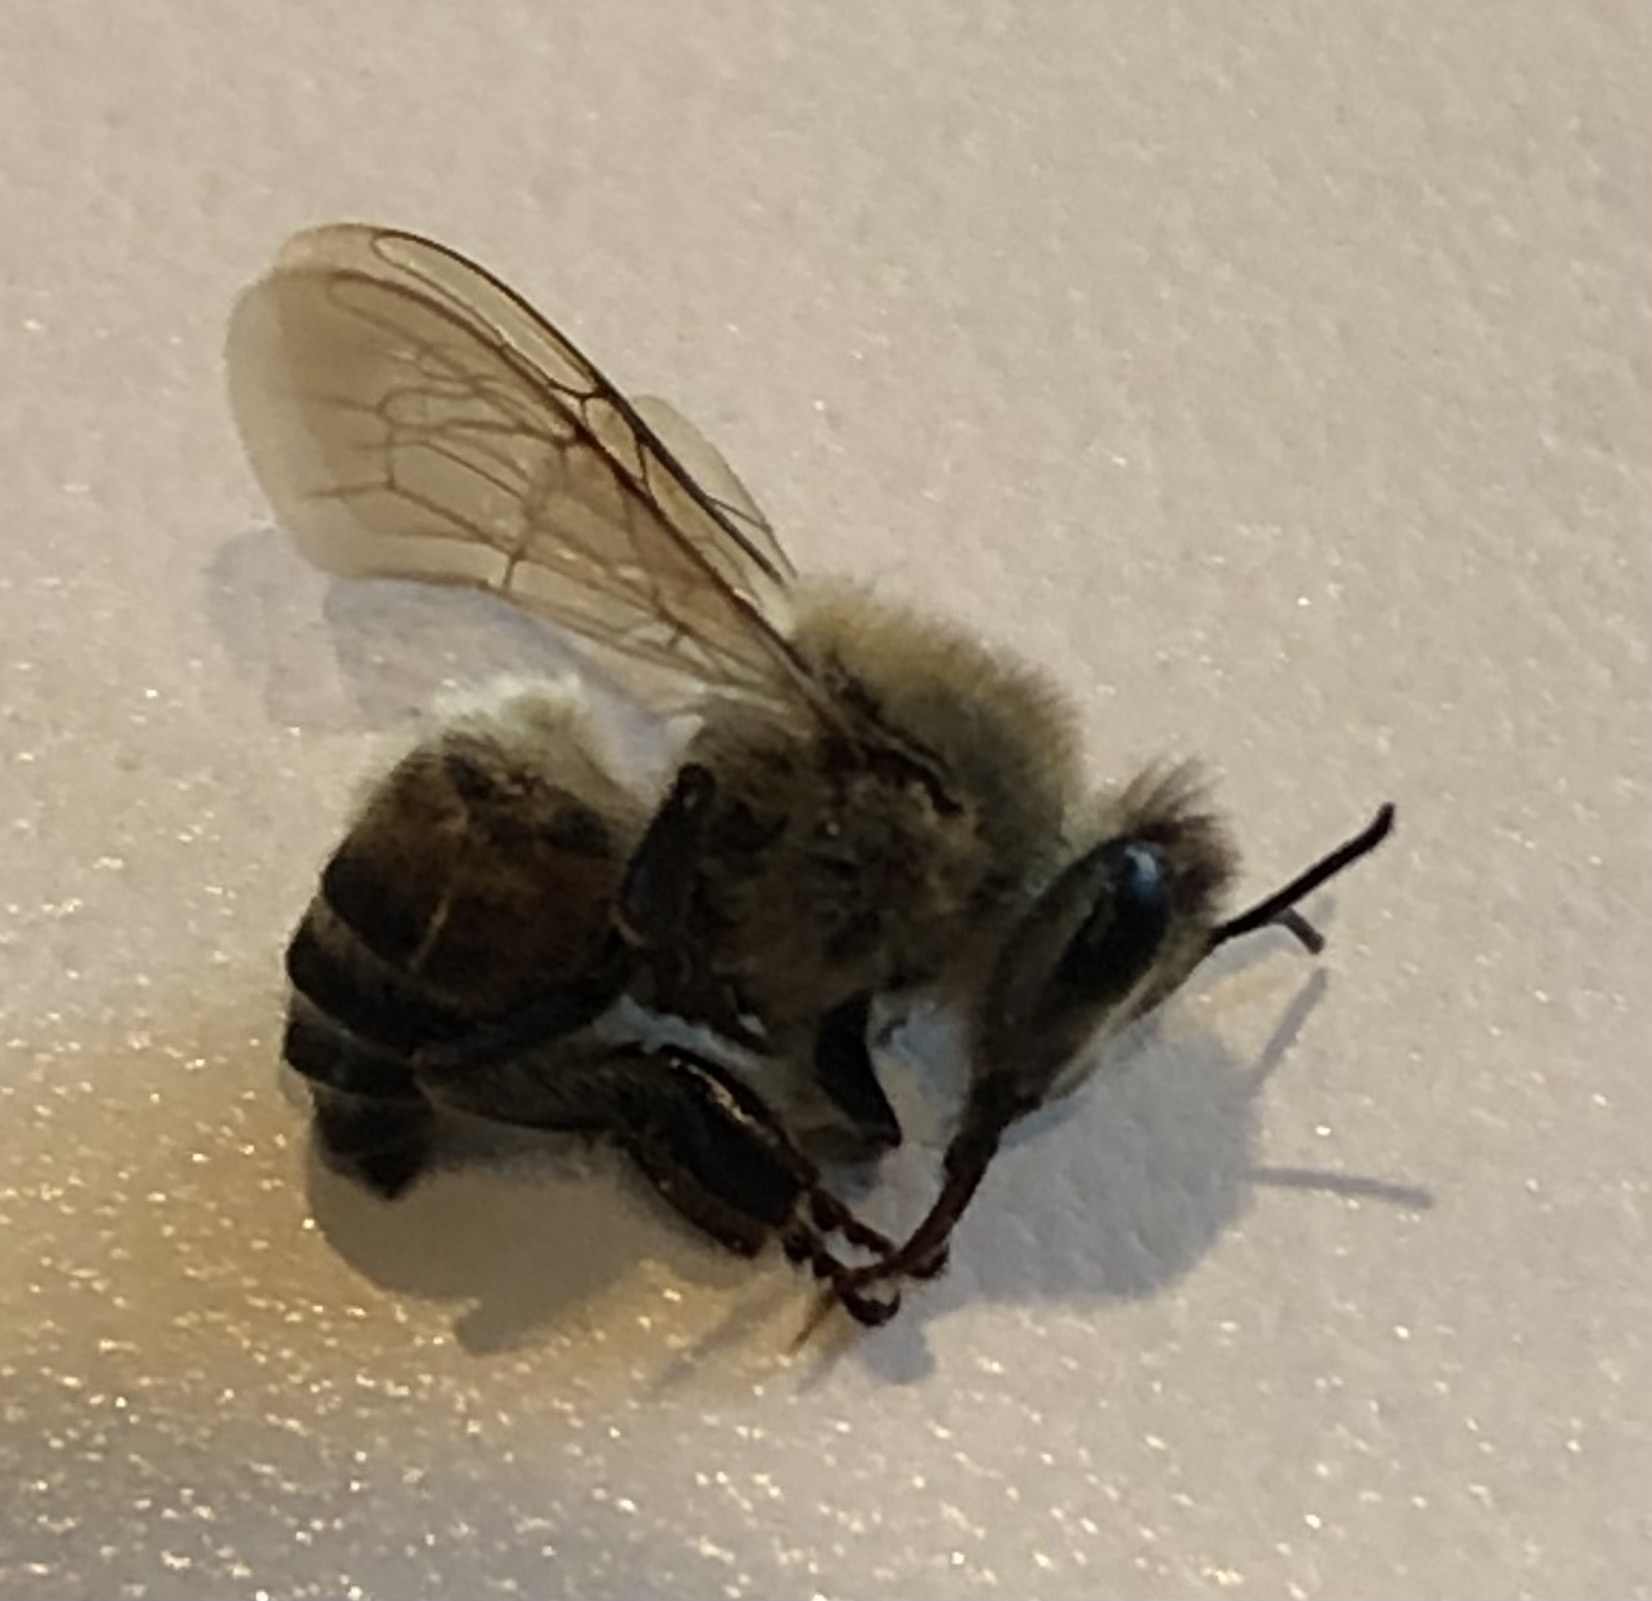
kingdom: Animalia
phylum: Arthropoda
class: Insecta
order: Hymenoptera
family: Apidae
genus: Apis
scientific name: Apis mellifera
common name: Honey bee
